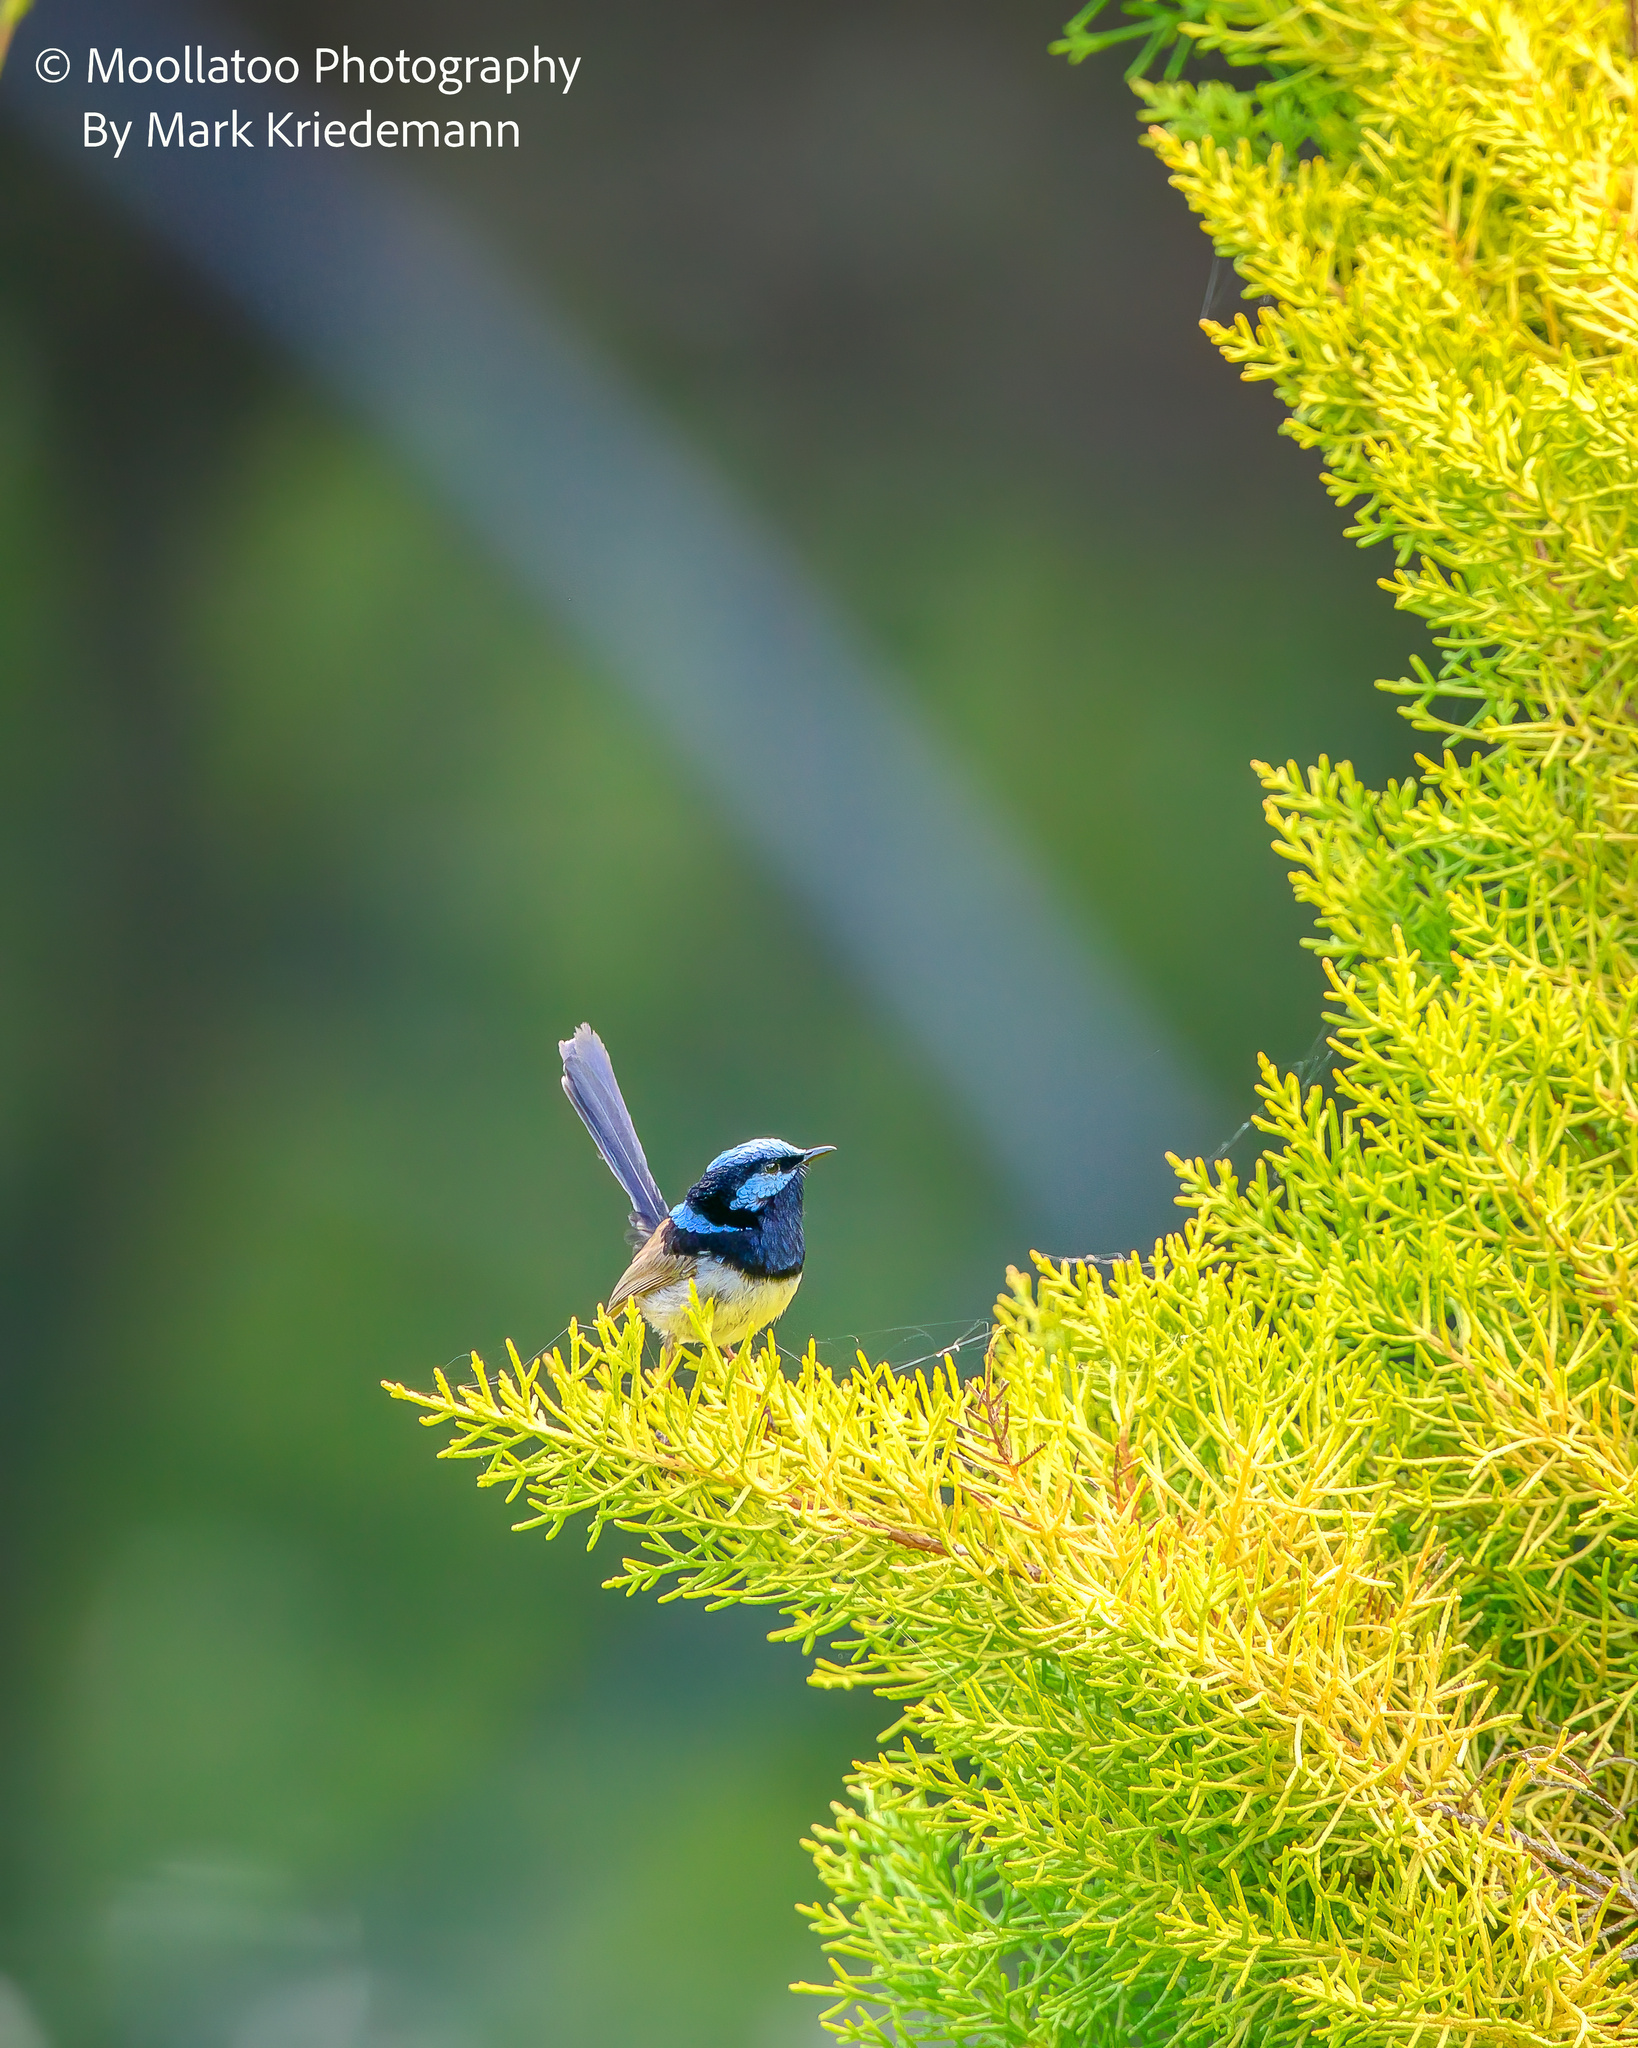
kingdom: Animalia
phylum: Chordata
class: Aves
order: Passeriformes
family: Maluridae
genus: Malurus
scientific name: Malurus cyaneus
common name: Superb fairywren
